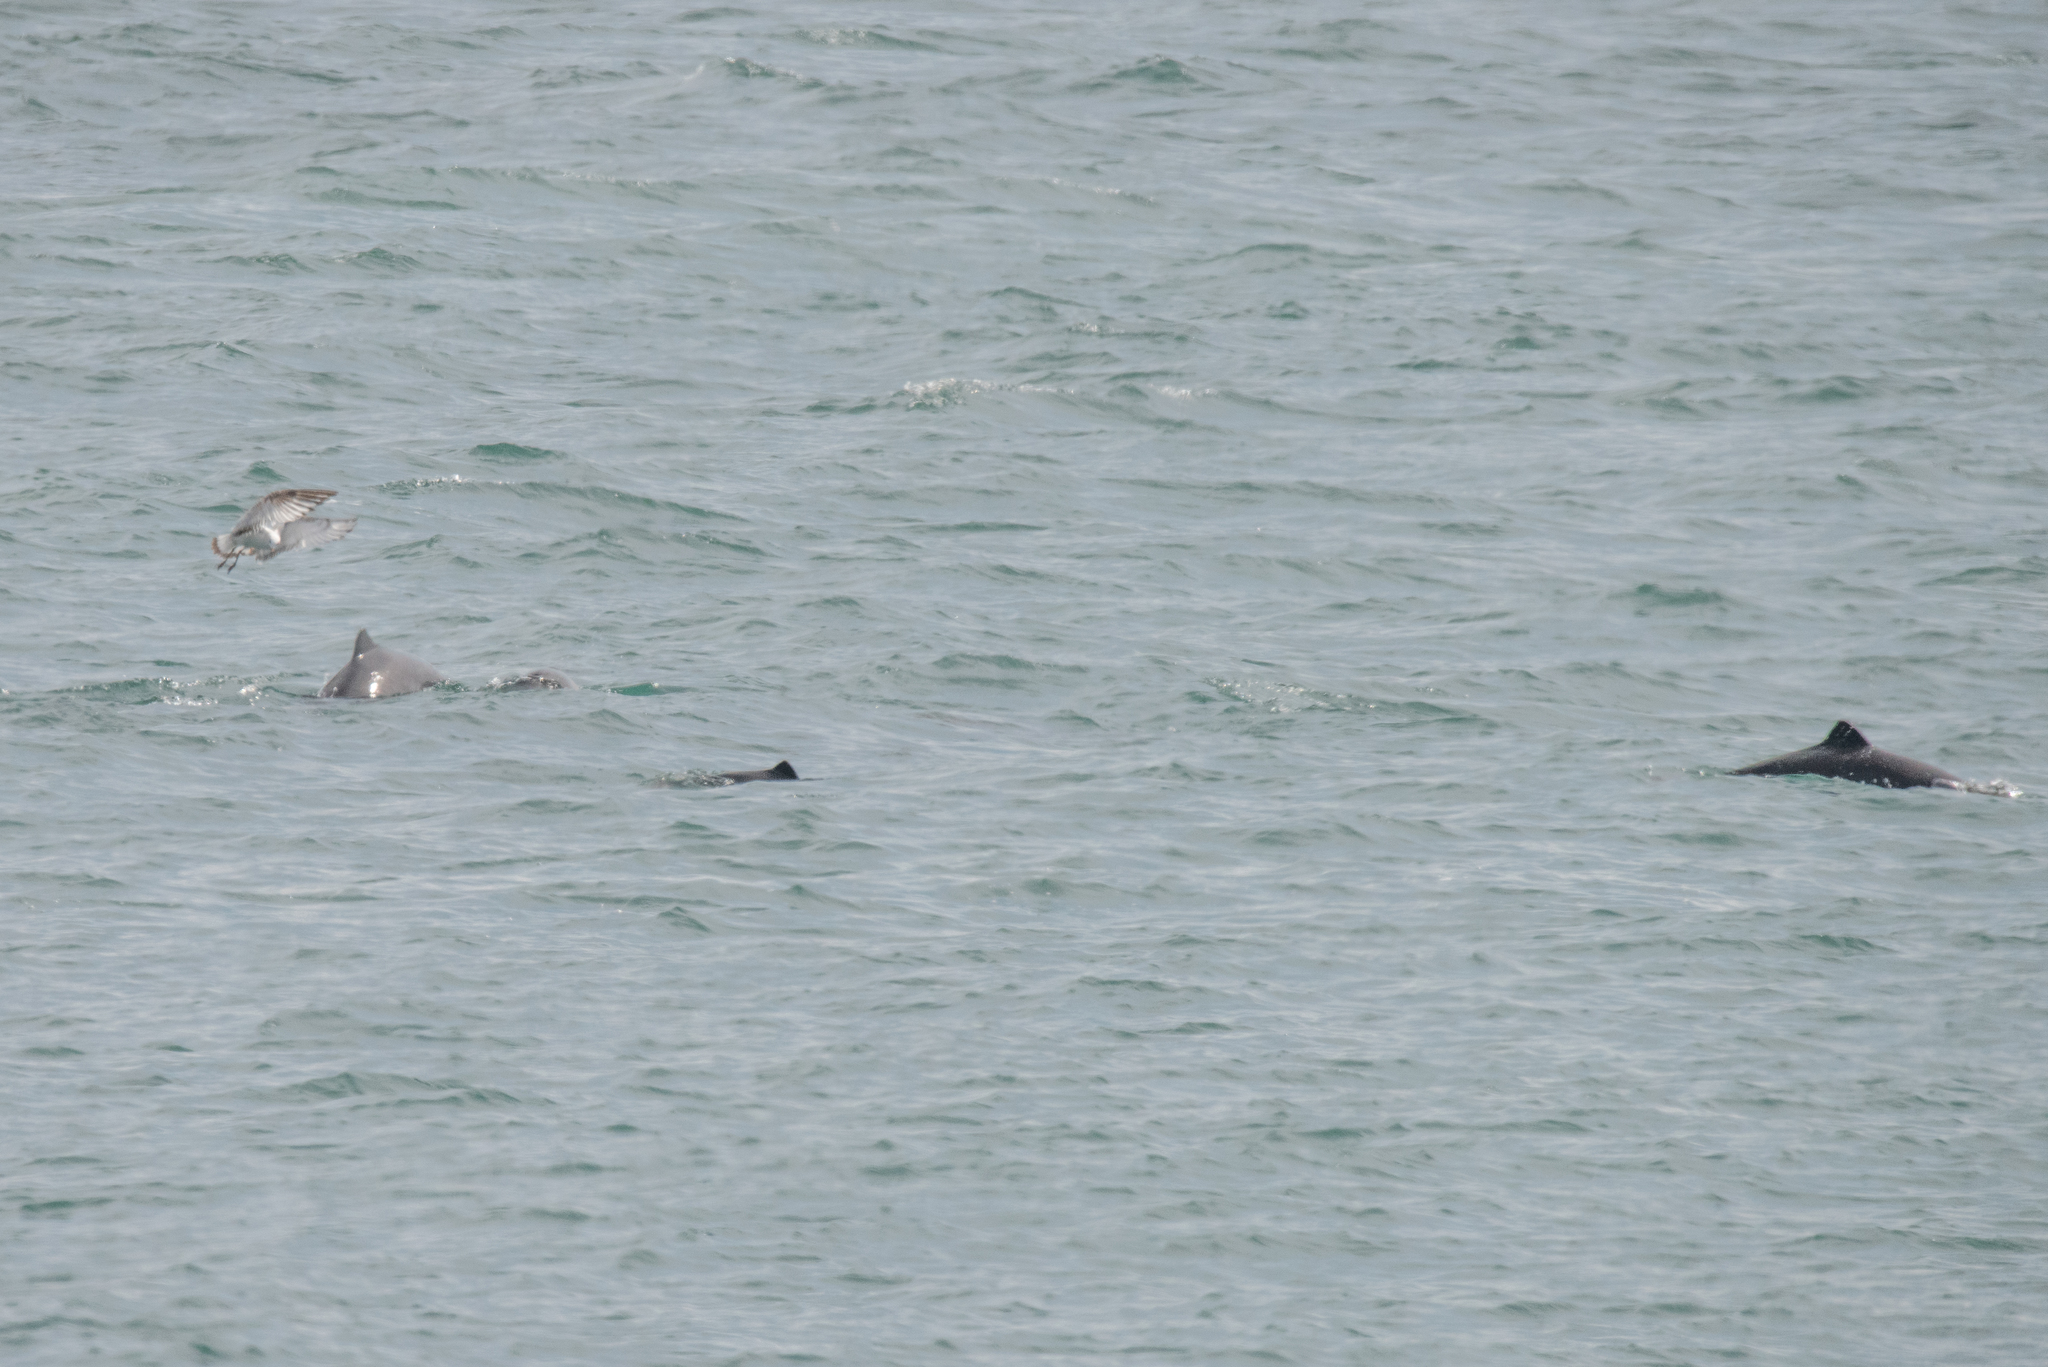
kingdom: Animalia
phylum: Chordata
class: Mammalia
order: Cetacea
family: Phocoenidae
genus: Phocoena
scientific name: Phocoena phocoena
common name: Harbor porpoise
